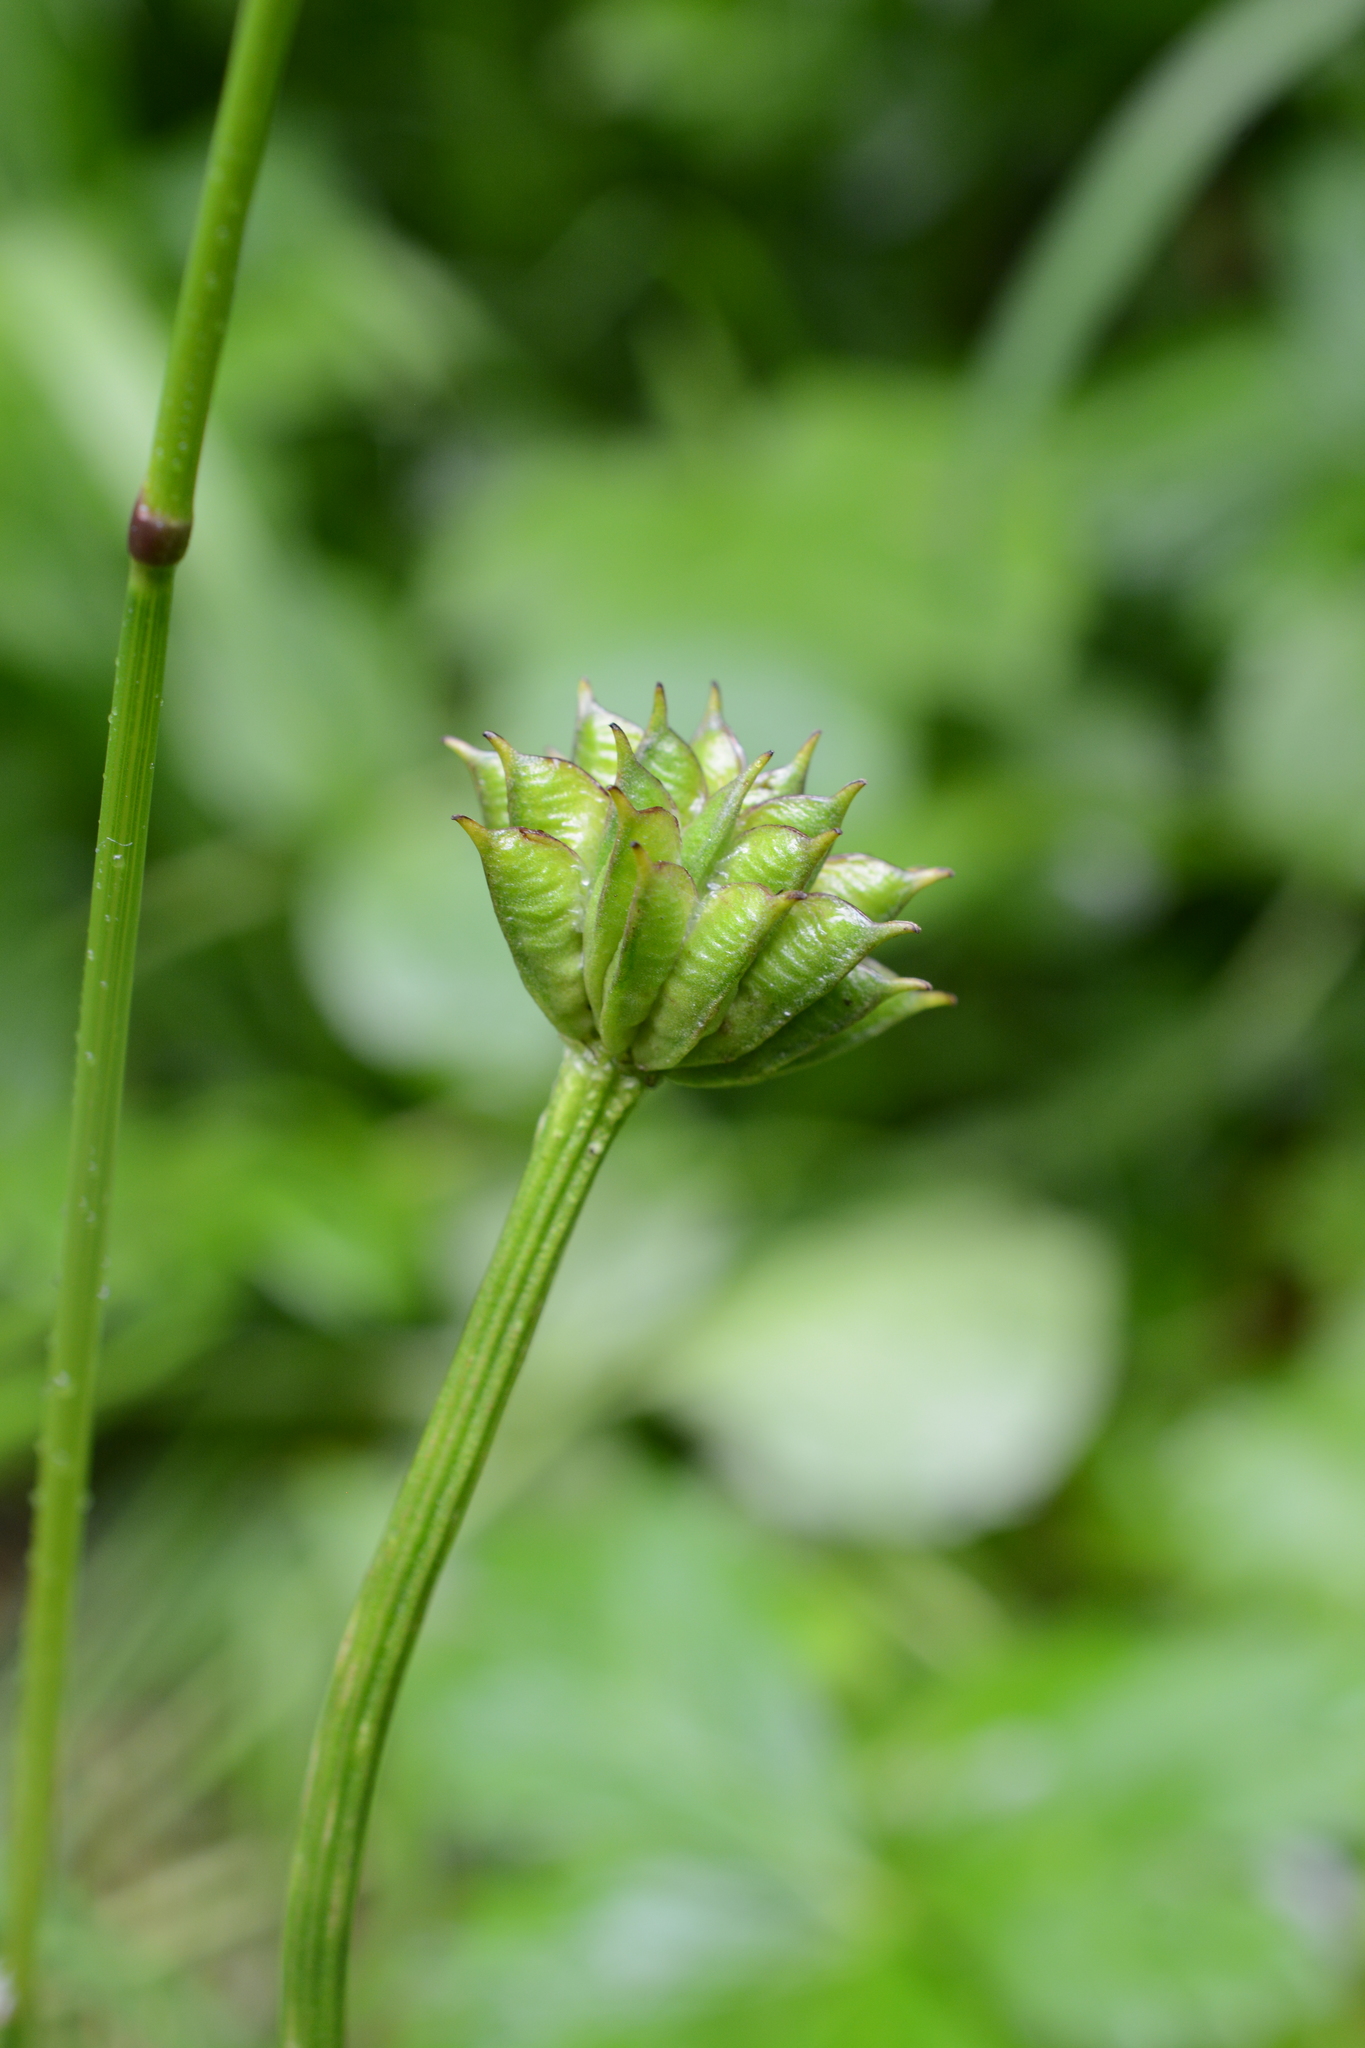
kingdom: Plantae
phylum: Tracheophyta
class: Magnoliopsida
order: Ranunculales
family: Ranunculaceae
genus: Trollius
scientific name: Trollius laxus
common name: American globeflower
